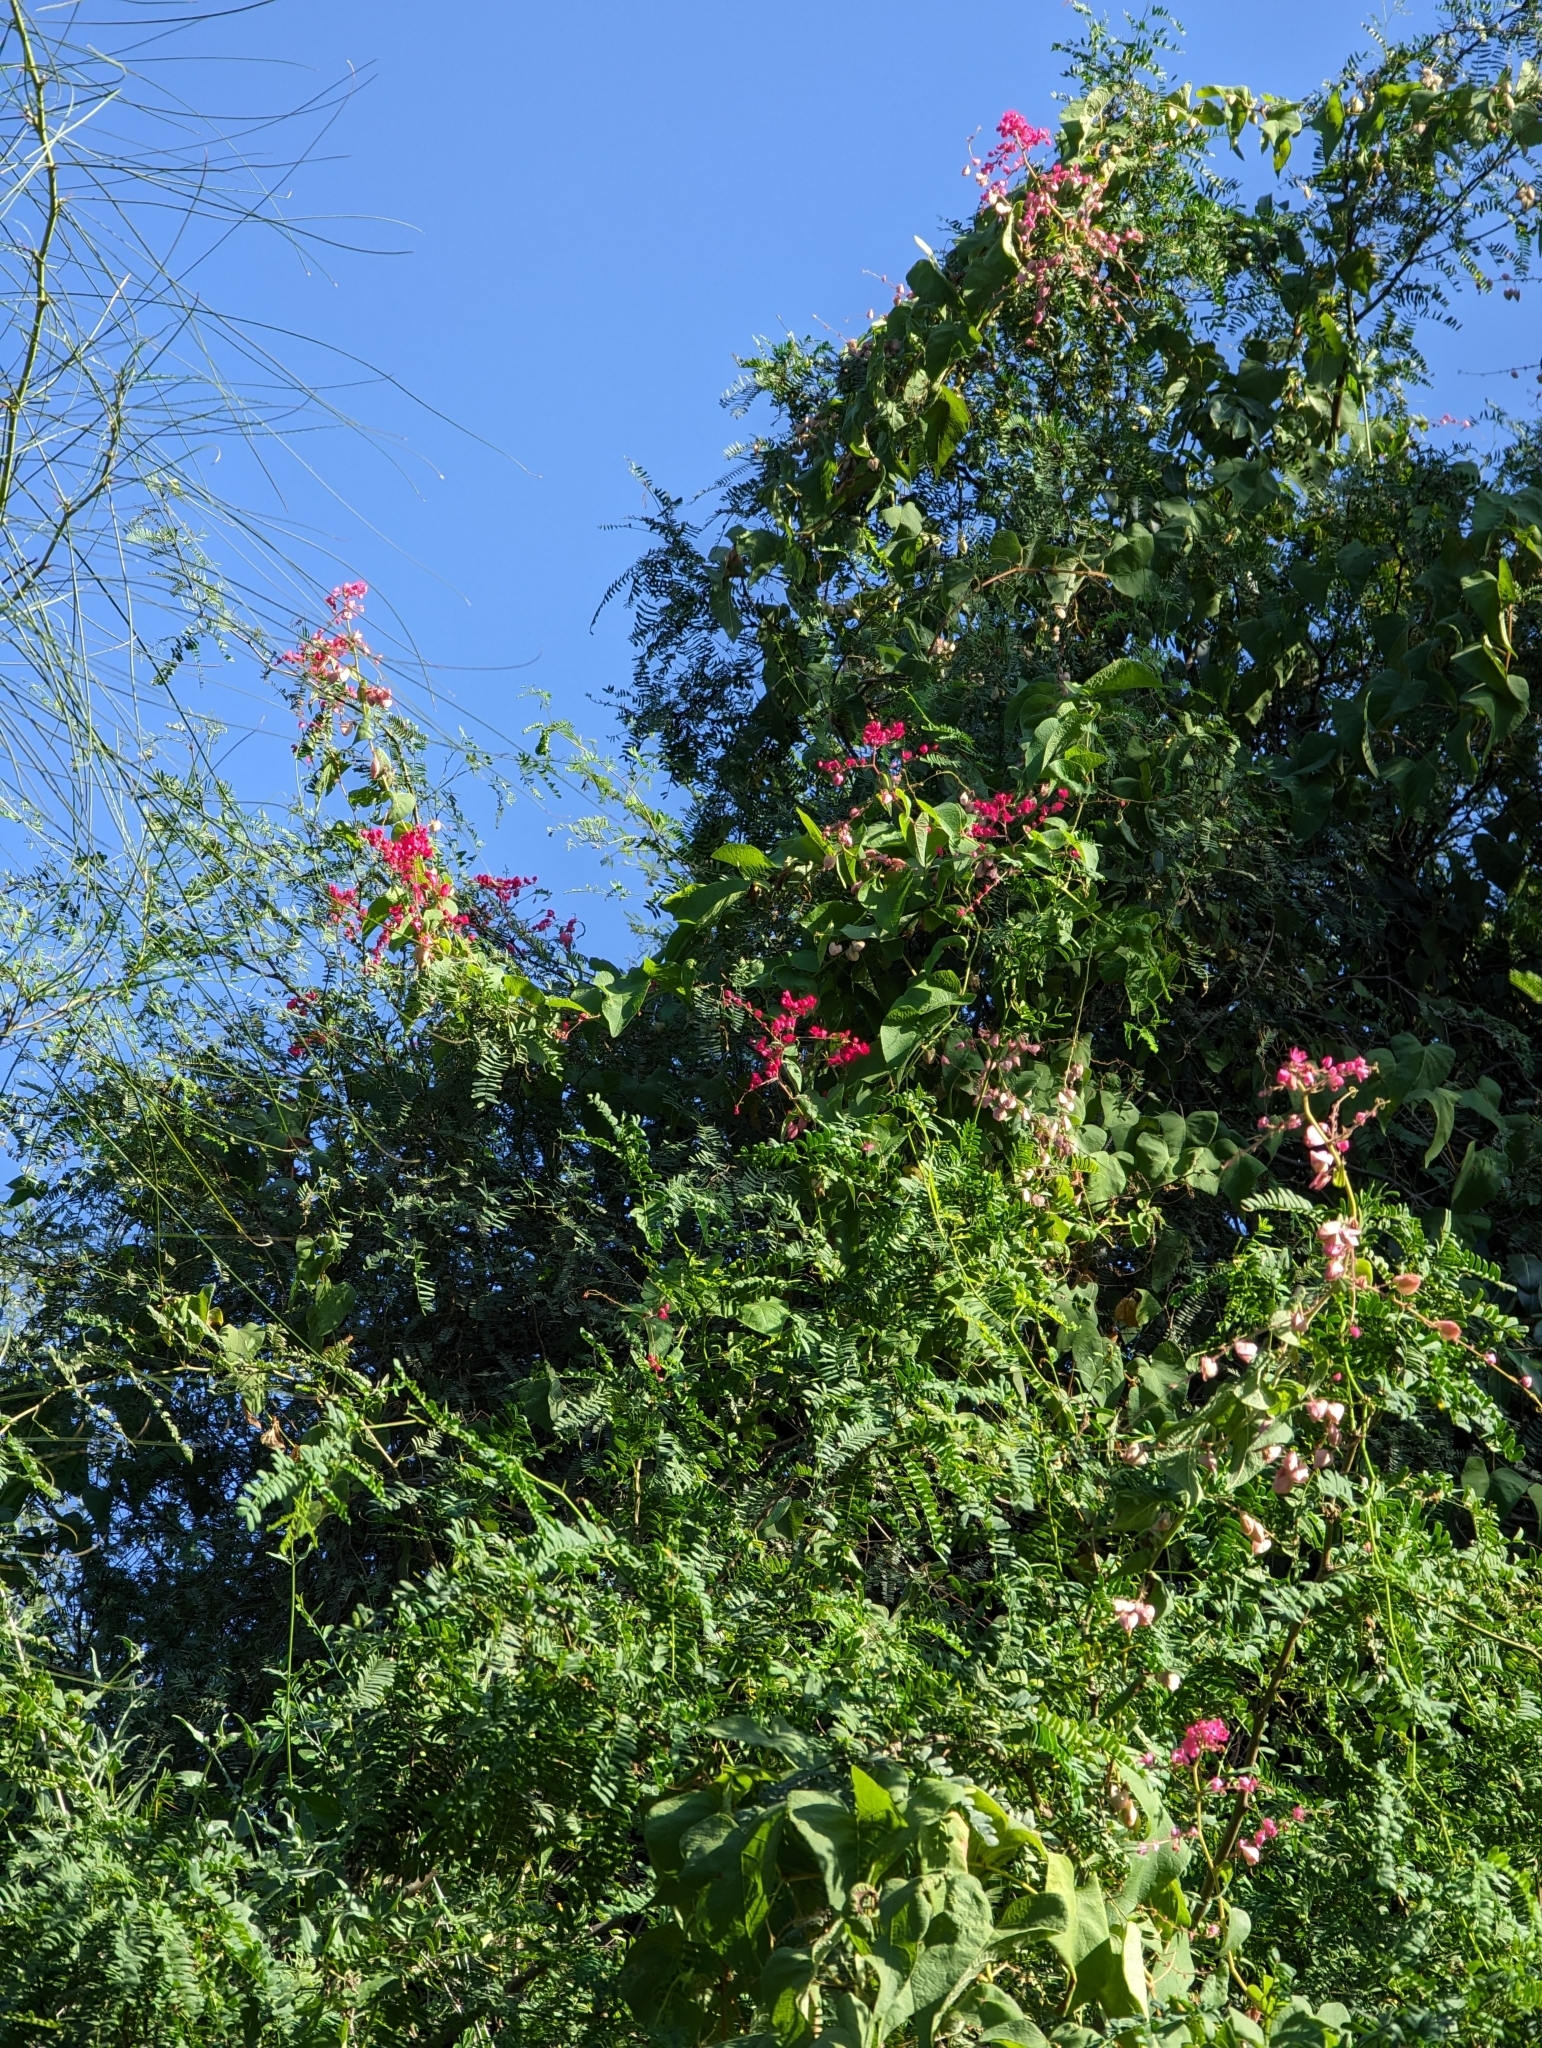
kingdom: Plantae
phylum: Tracheophyta
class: Magnoliopsida
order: Caryophyllales
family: Polygonaceae
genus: Antigonon
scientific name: Antigonon leptopus
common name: Coral vine
